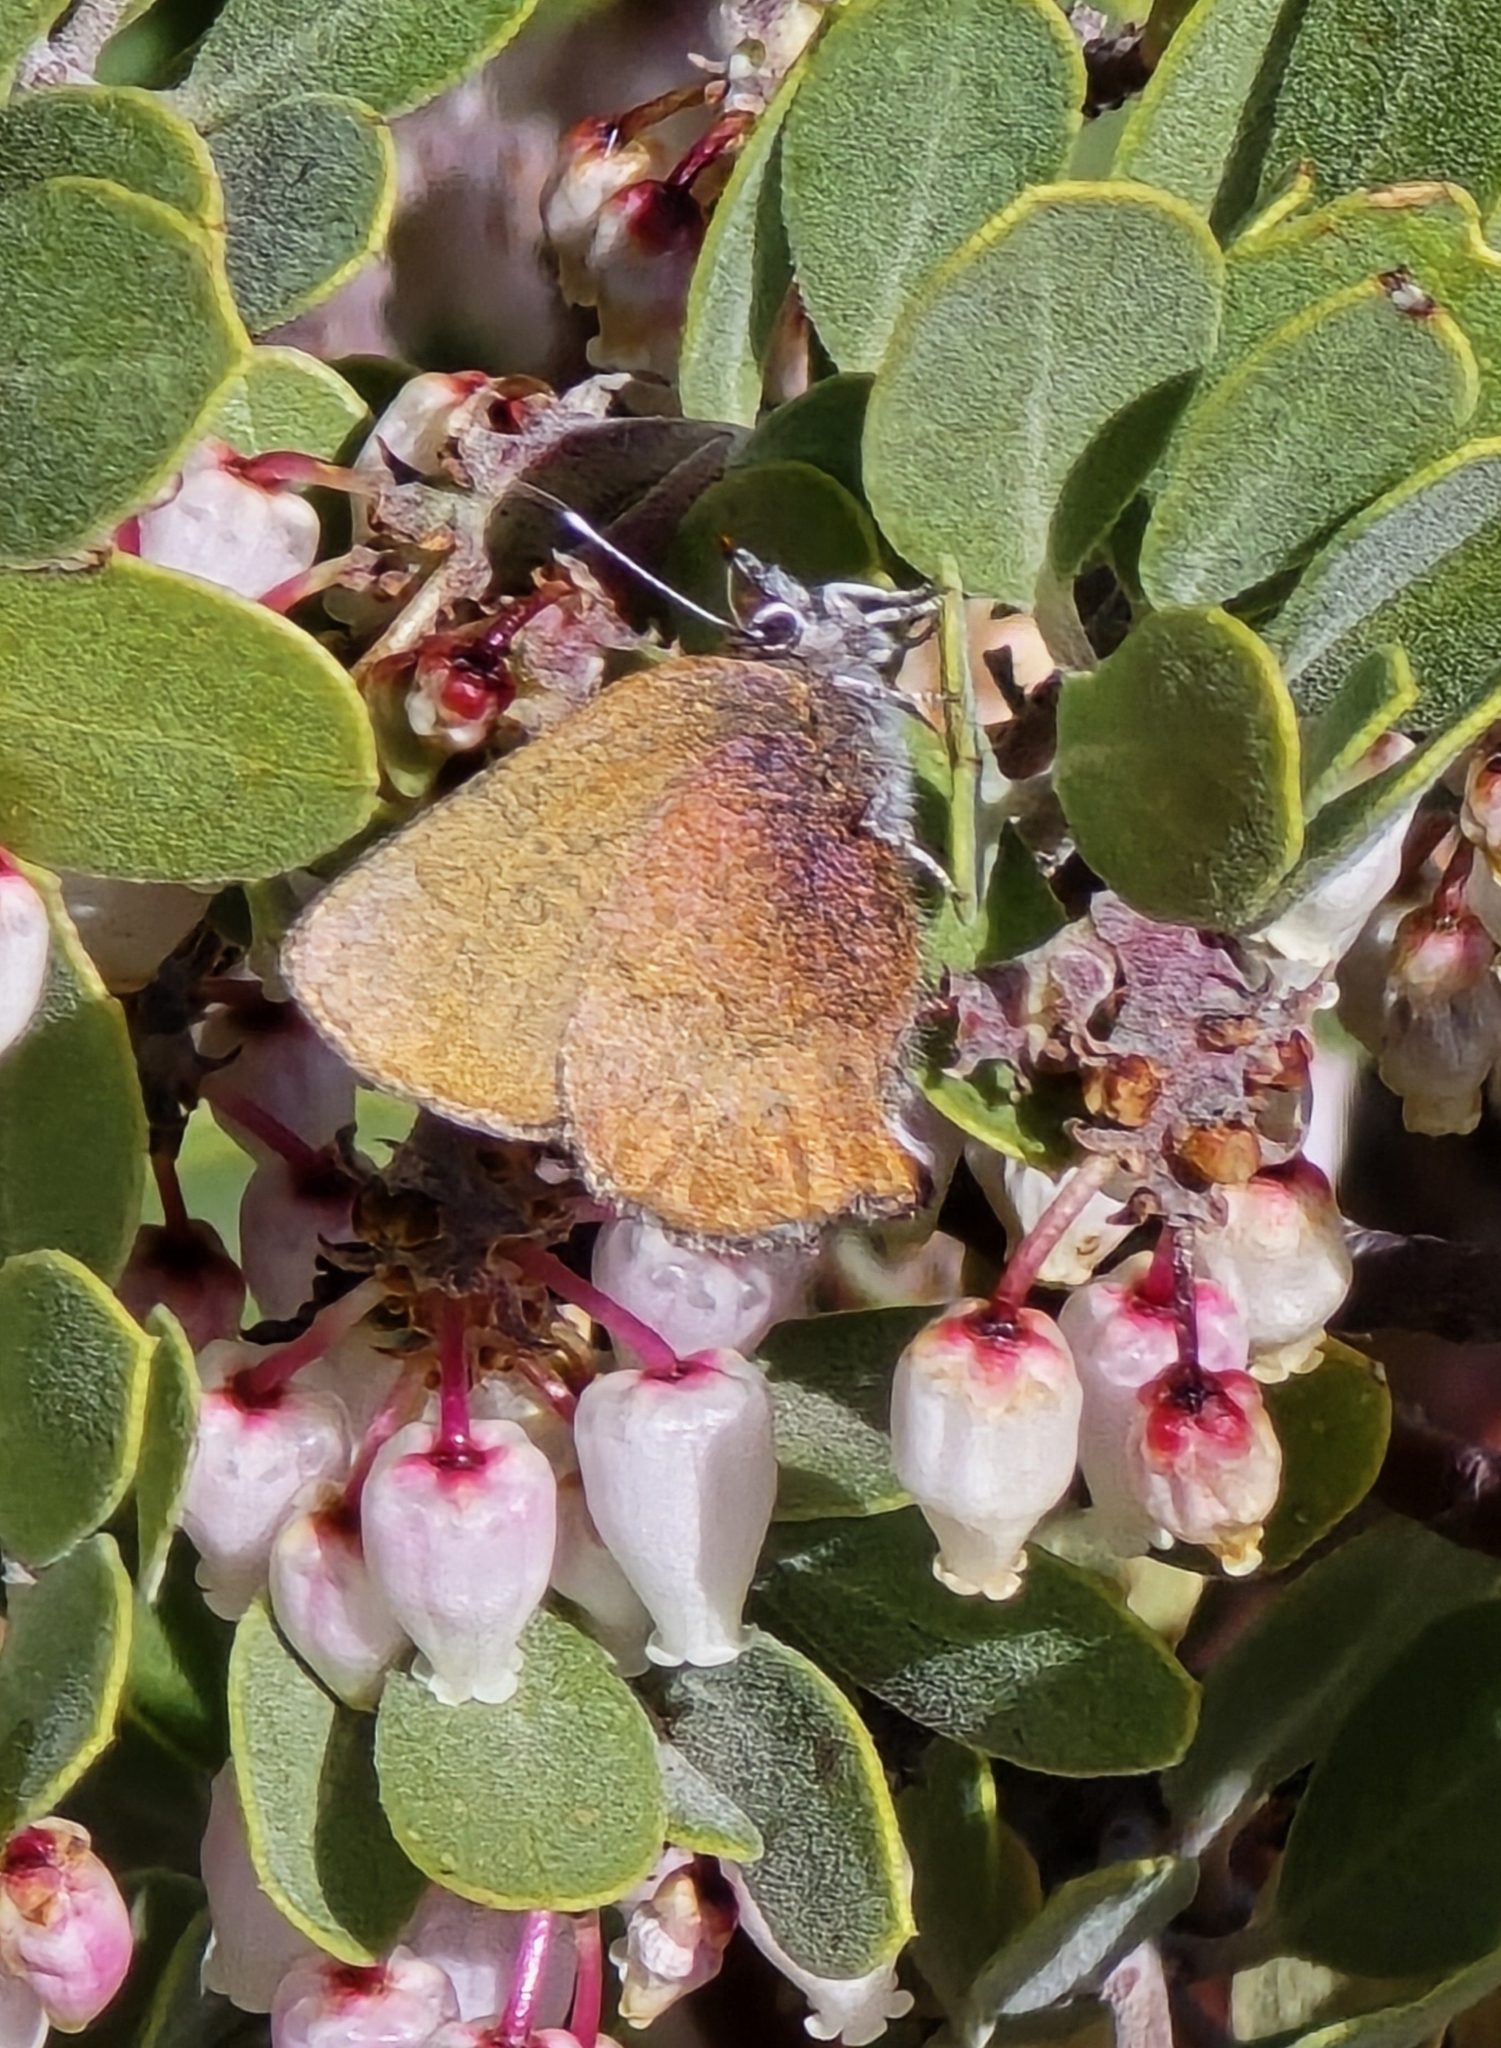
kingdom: Animalia
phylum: Arthropoda
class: Insecta
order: Lepidoptera
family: Lycaenidae
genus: Incisalia
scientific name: Incisalia irioides
